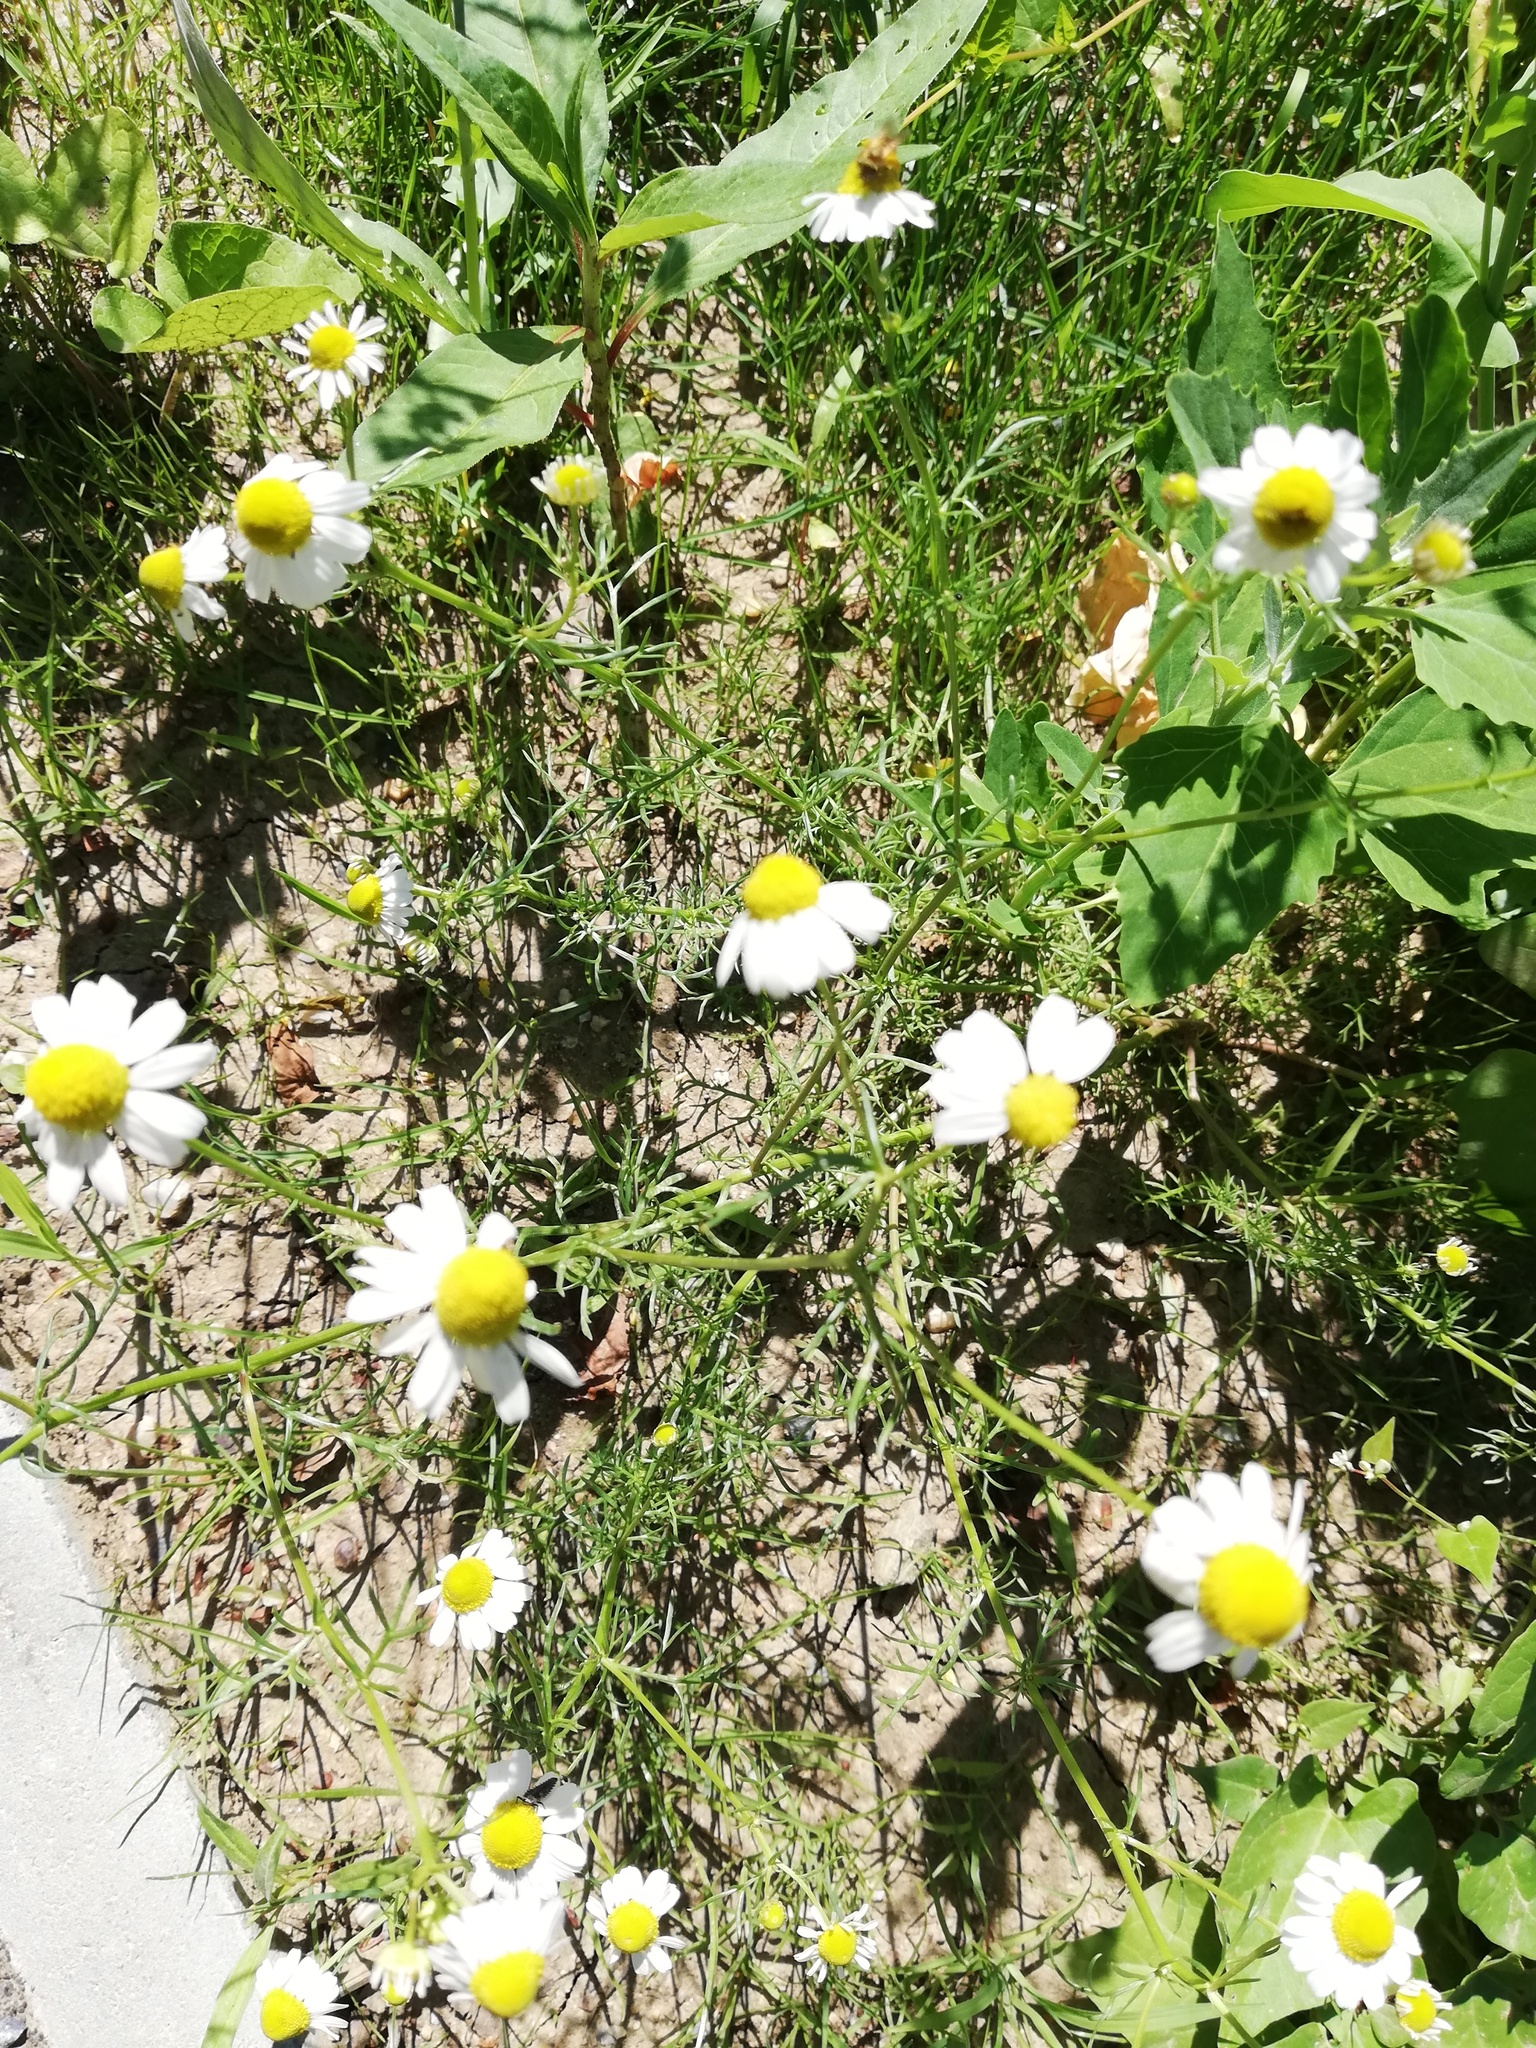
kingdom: Plantae
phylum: Tracheophyta
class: Magnoliopsida
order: Asterales
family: Asteraceae
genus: Matricaria
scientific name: Matricaria chamomilla
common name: Scented mayweed
